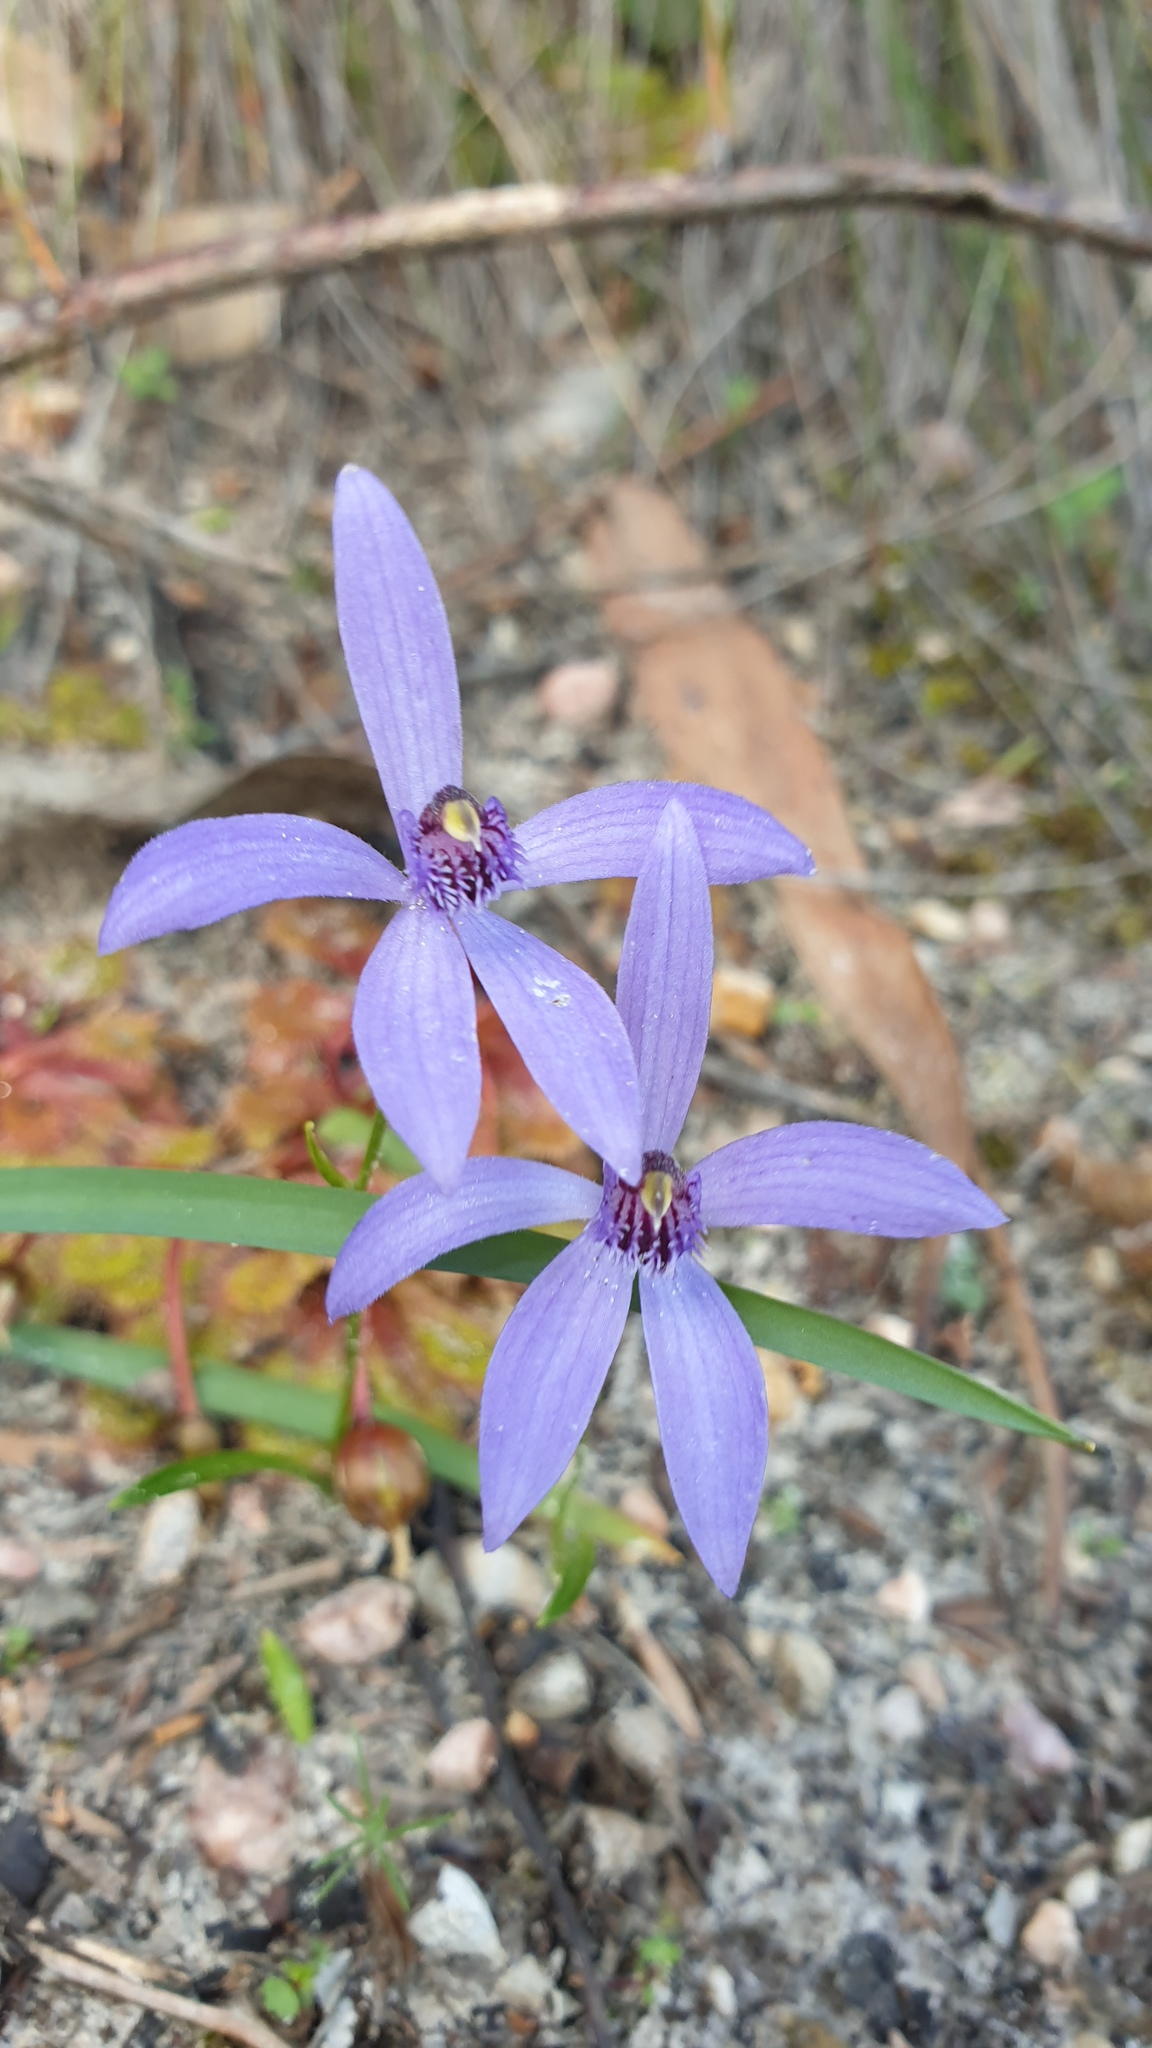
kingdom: Plantae
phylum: Tracheophyta
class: Liliopsida
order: Asparagales
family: Orchidaceae
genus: Pheladenia
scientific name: Pheladenia deformis
